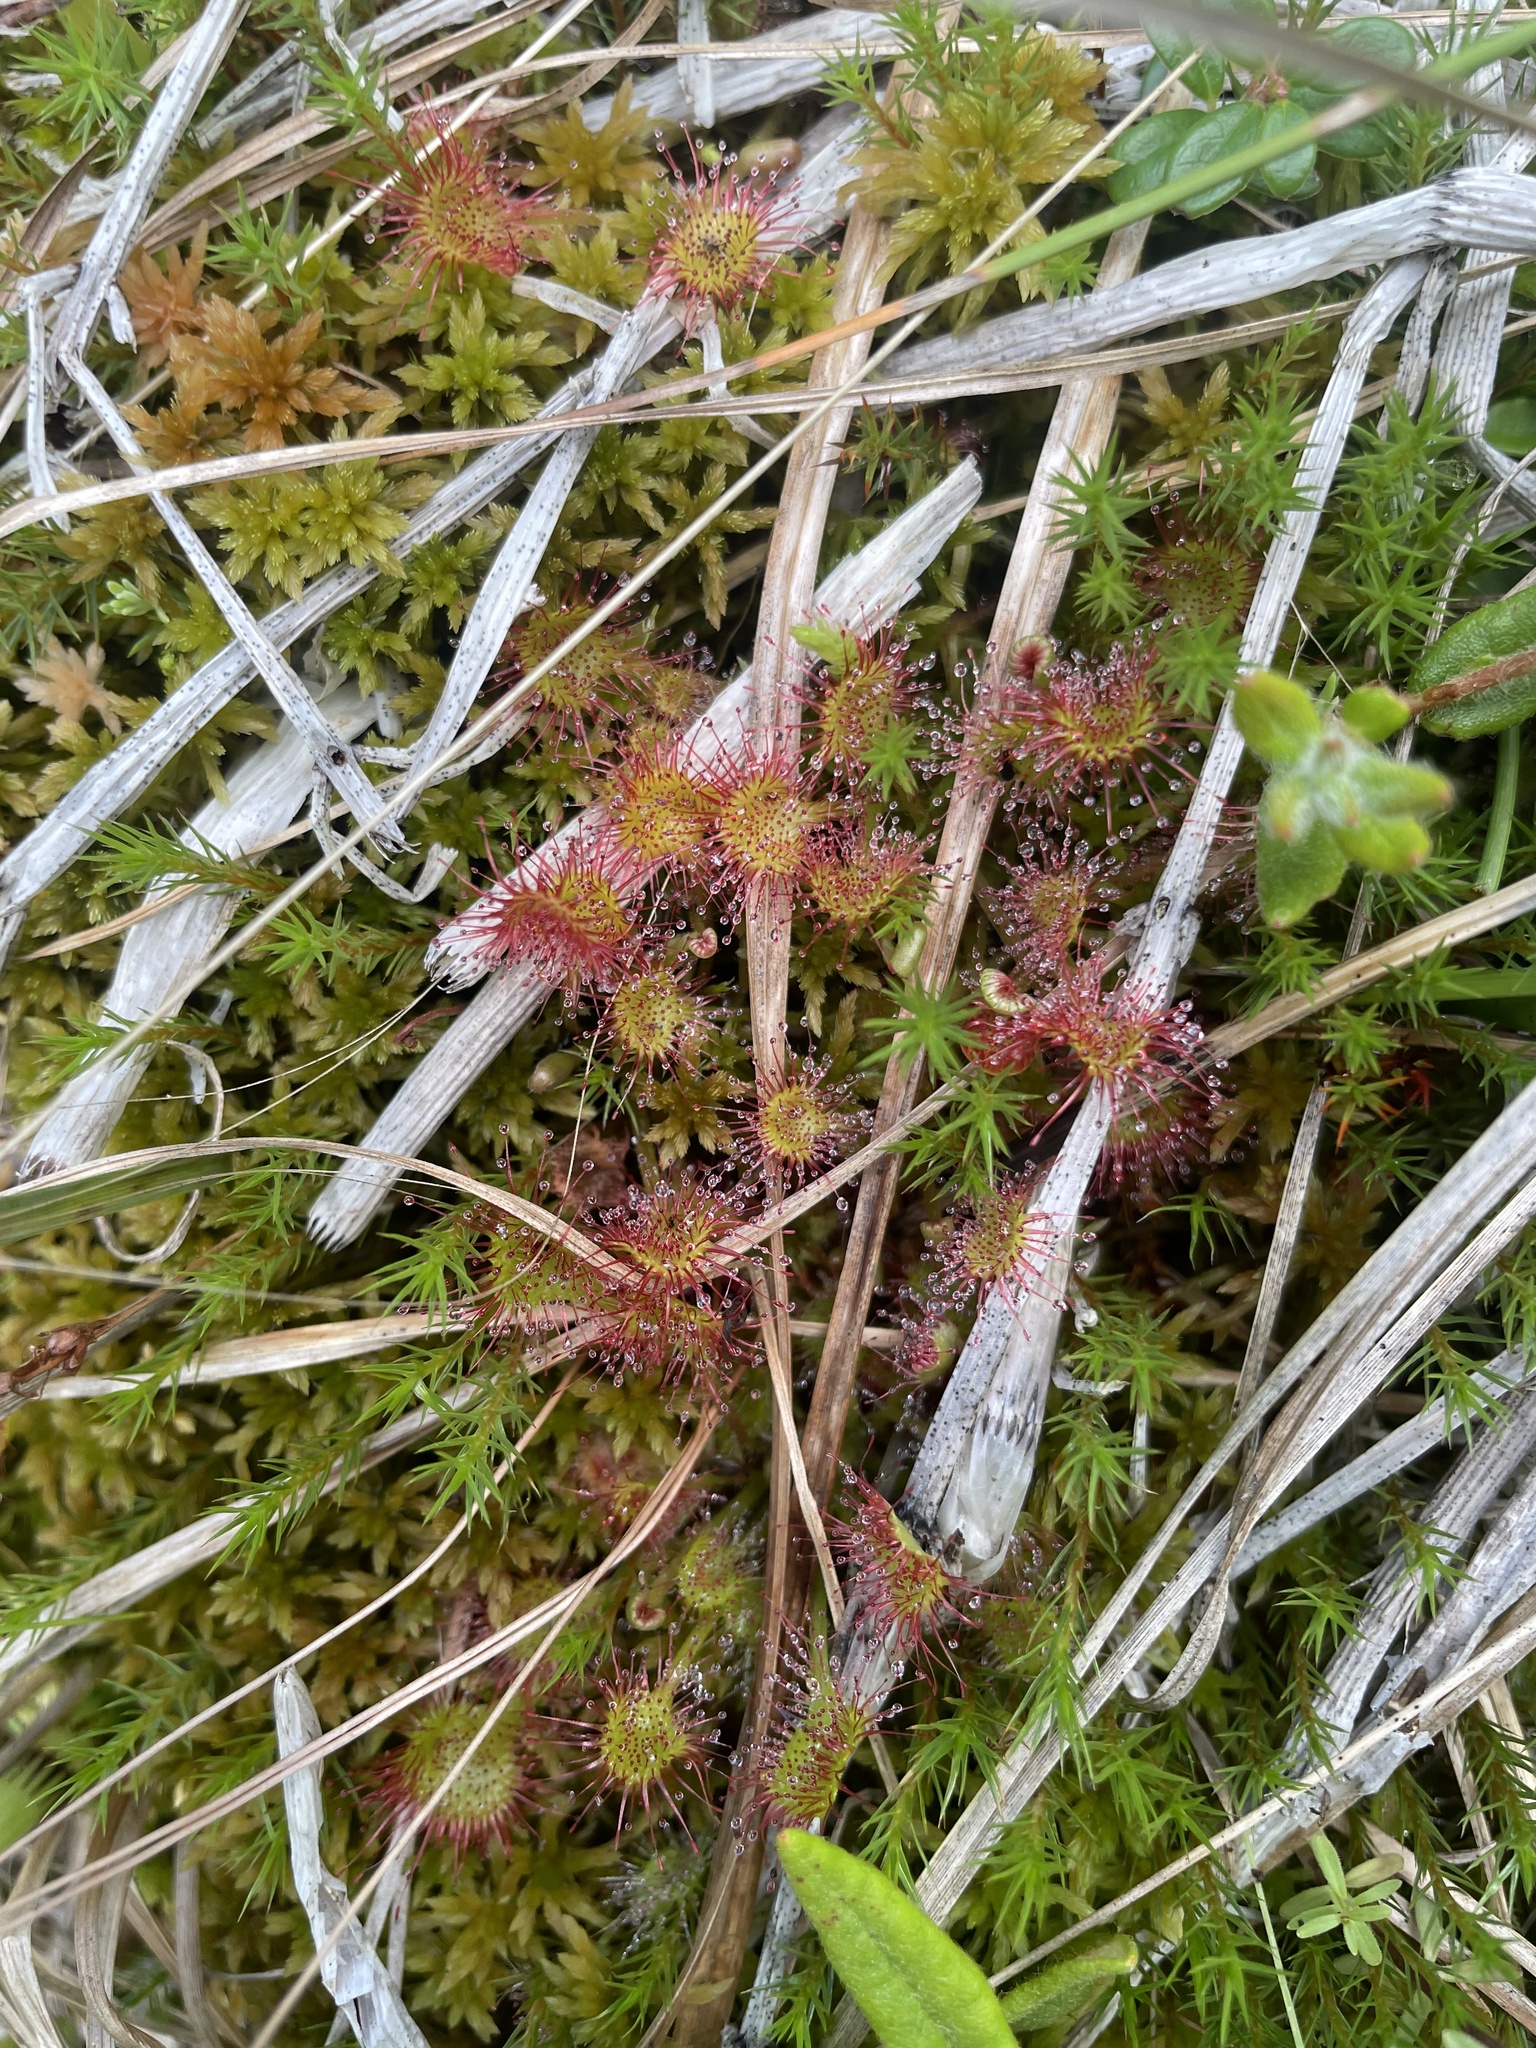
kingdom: Plantae
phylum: Tracheophyta
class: Magnoliopsida
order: Caryophyllales
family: Droseraceae
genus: Drosera
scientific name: Drosera rotundifolia
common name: Round-leaved sundew
